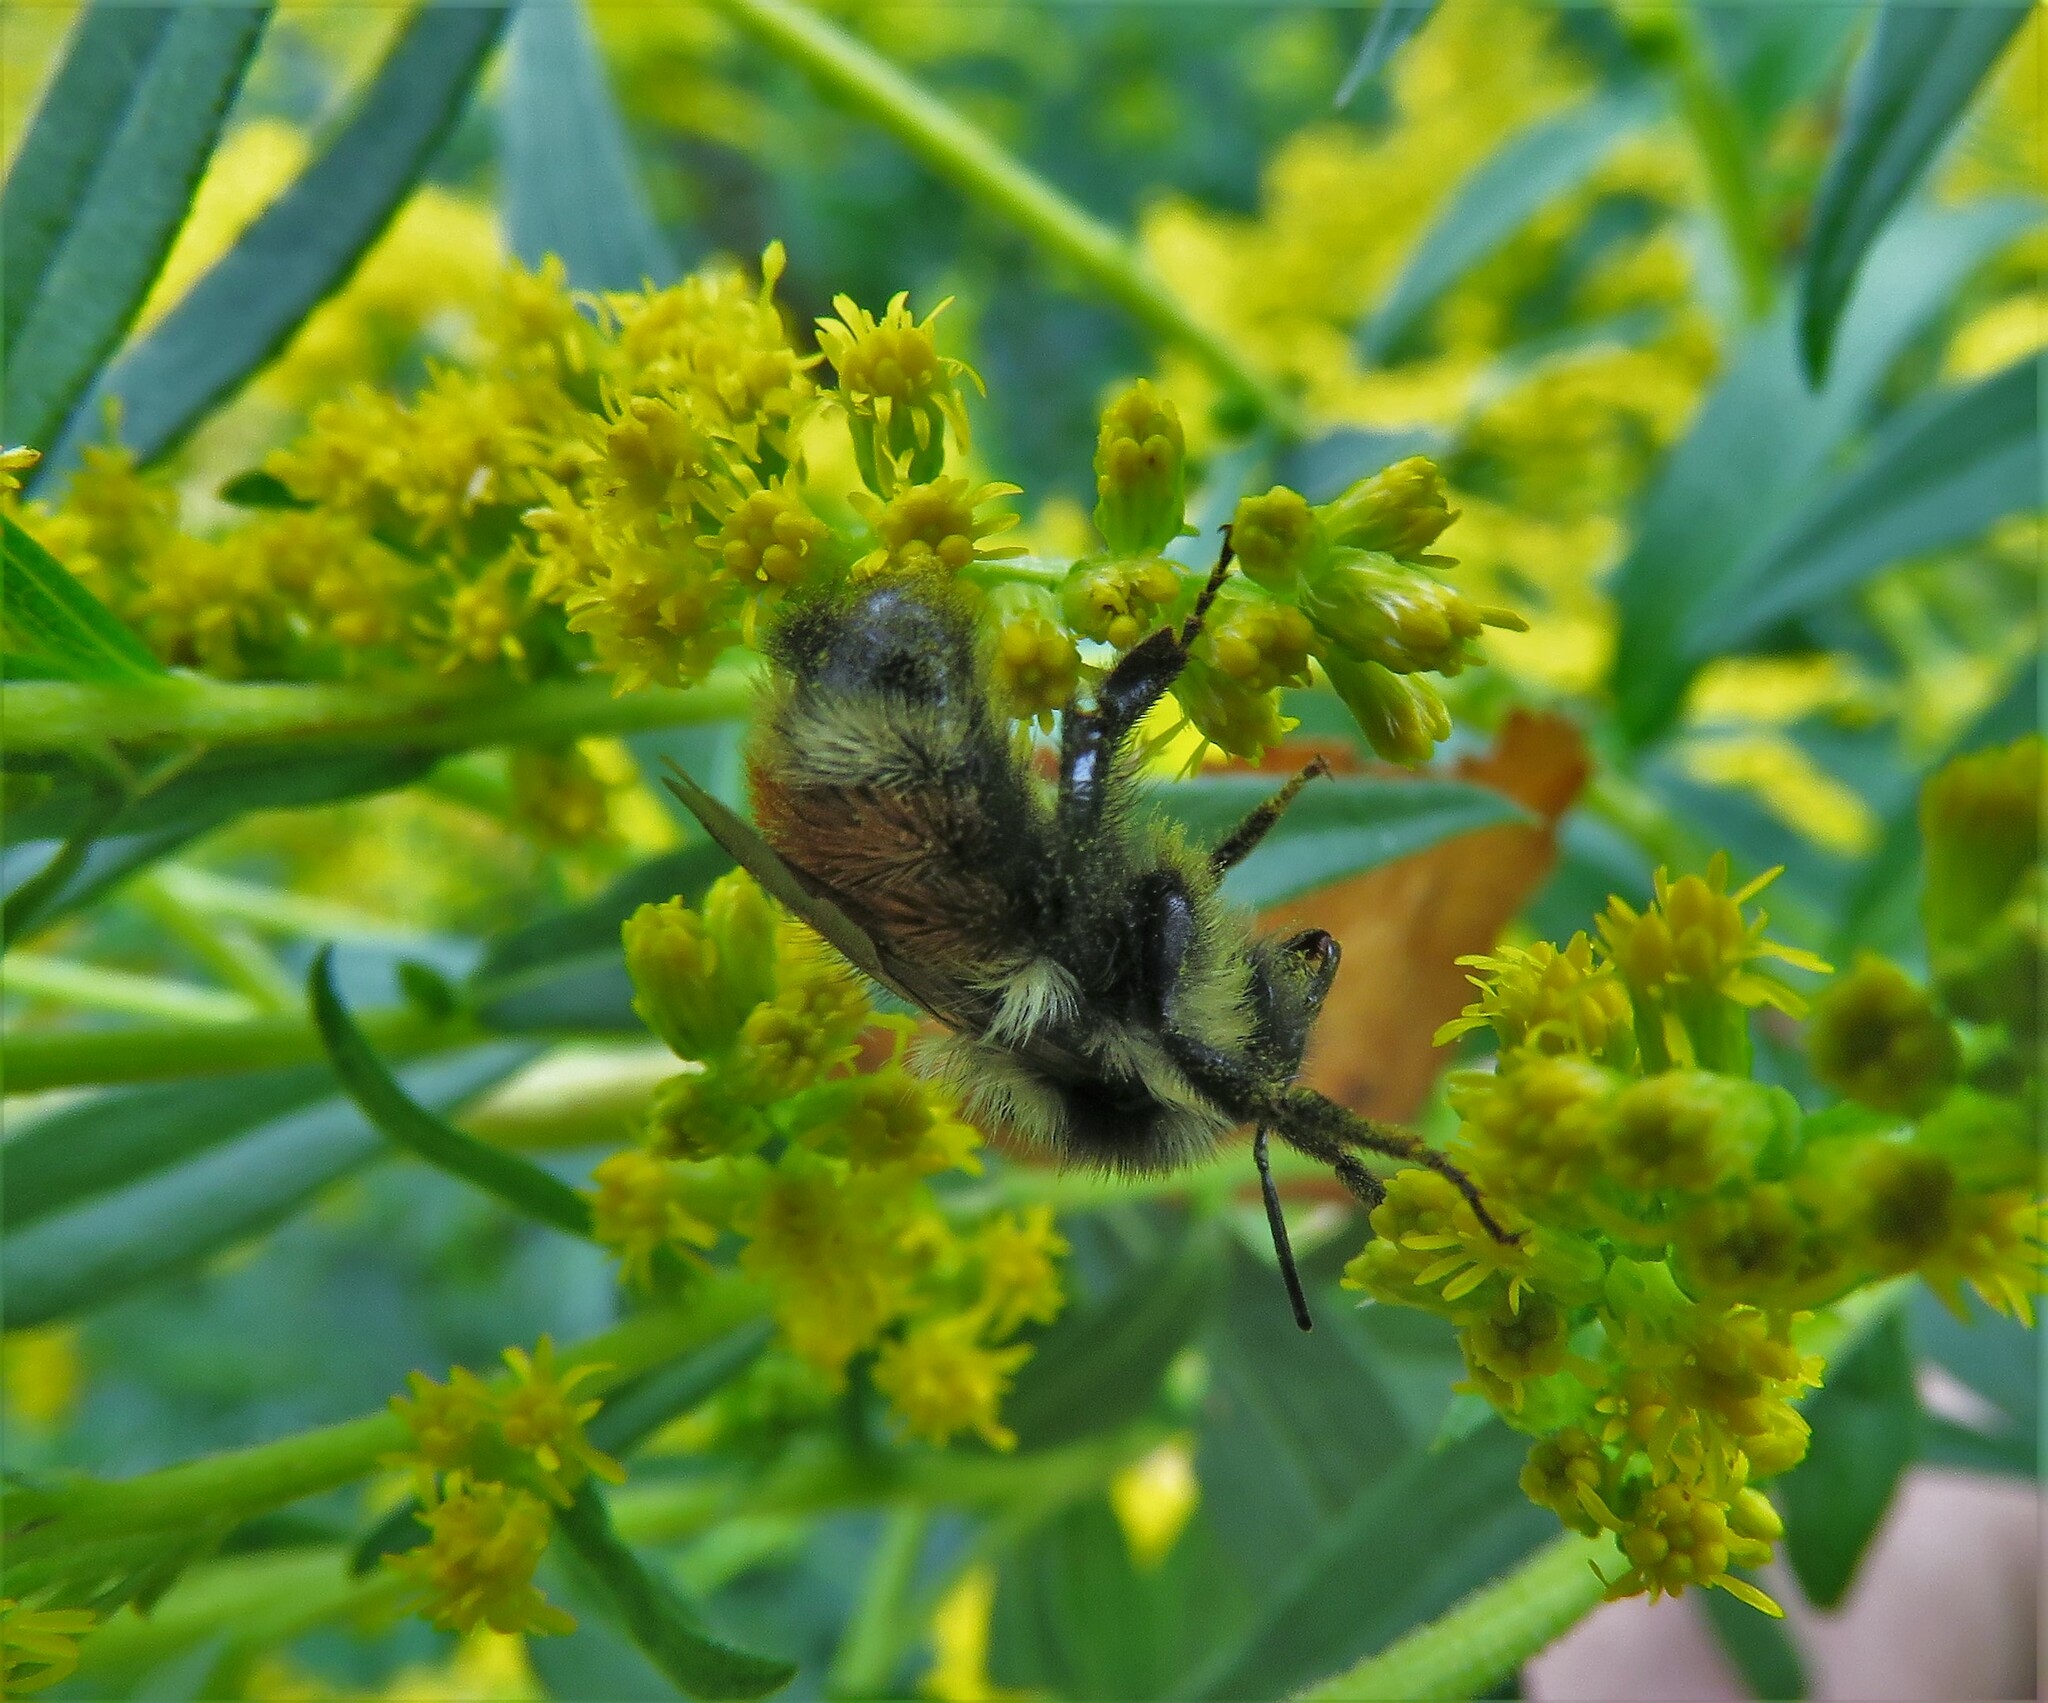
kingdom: Animalia
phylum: Arthropoda
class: Insecta
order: Hymenoptera
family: Apidae
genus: Bombus
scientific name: Bombus ternarius
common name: Tri-colored bumble bee
